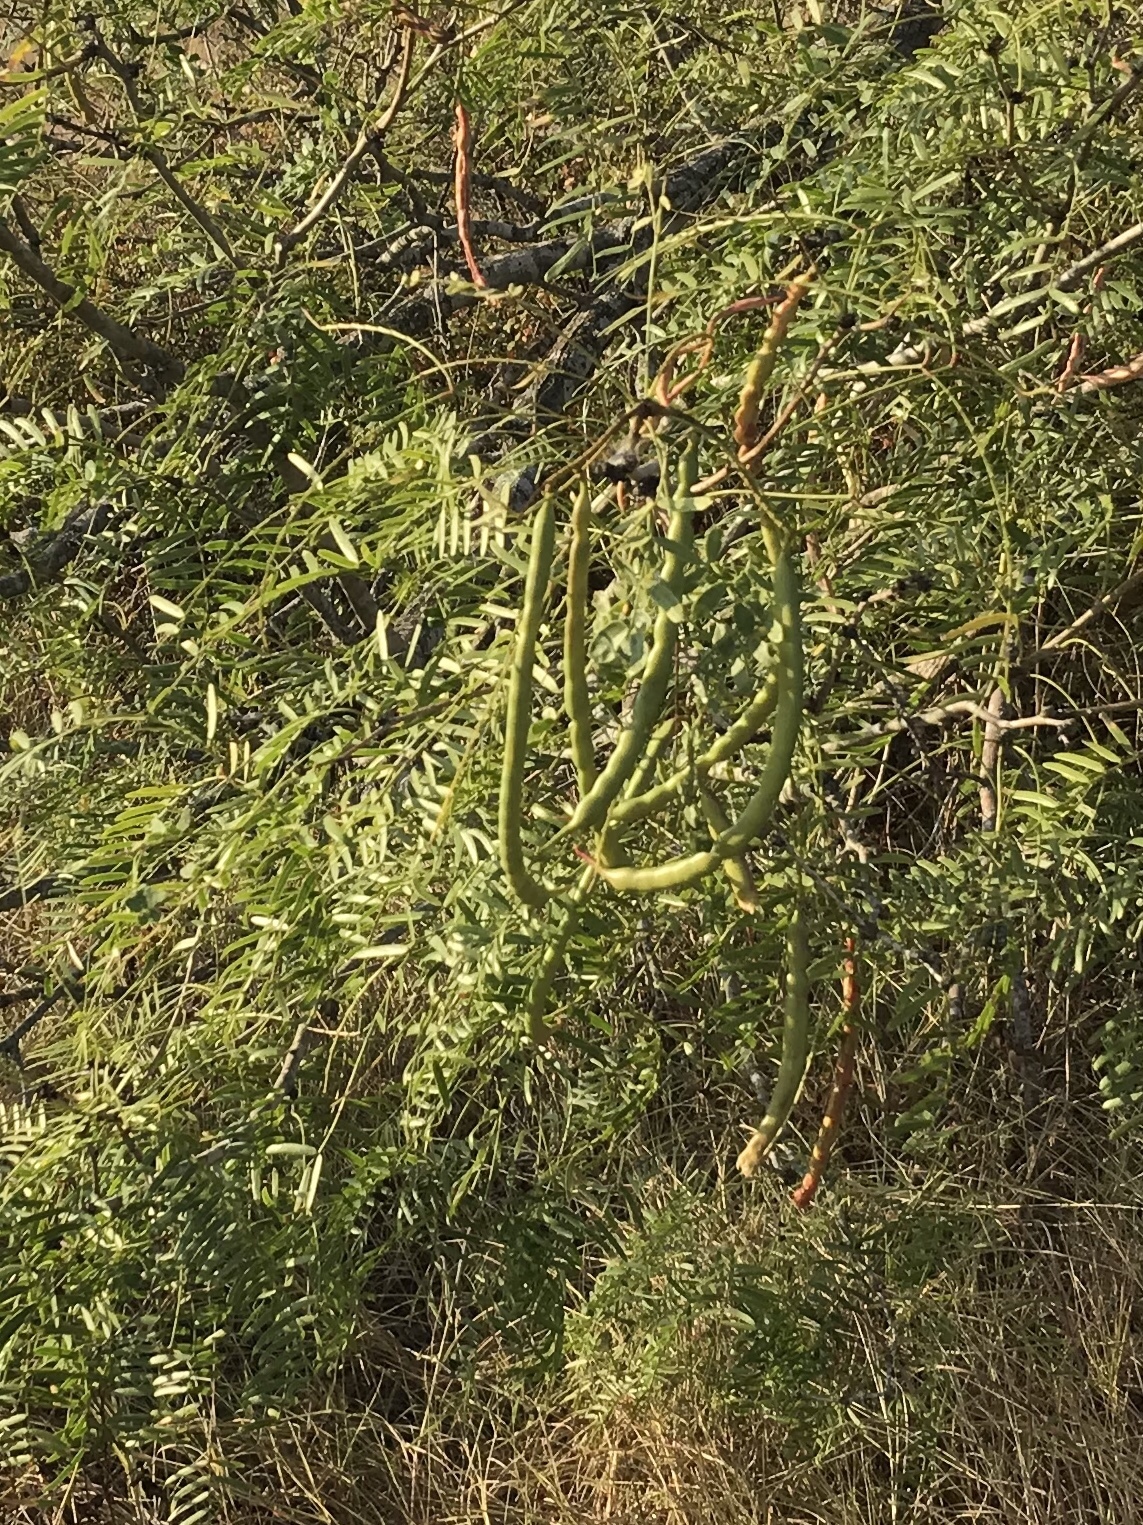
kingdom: Plantae
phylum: Tracheophyta
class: Magnoliopsida
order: Fabales
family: Fabaceae
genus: Prosopis
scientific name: Prosopis glandulosa
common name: Honey mesquite
